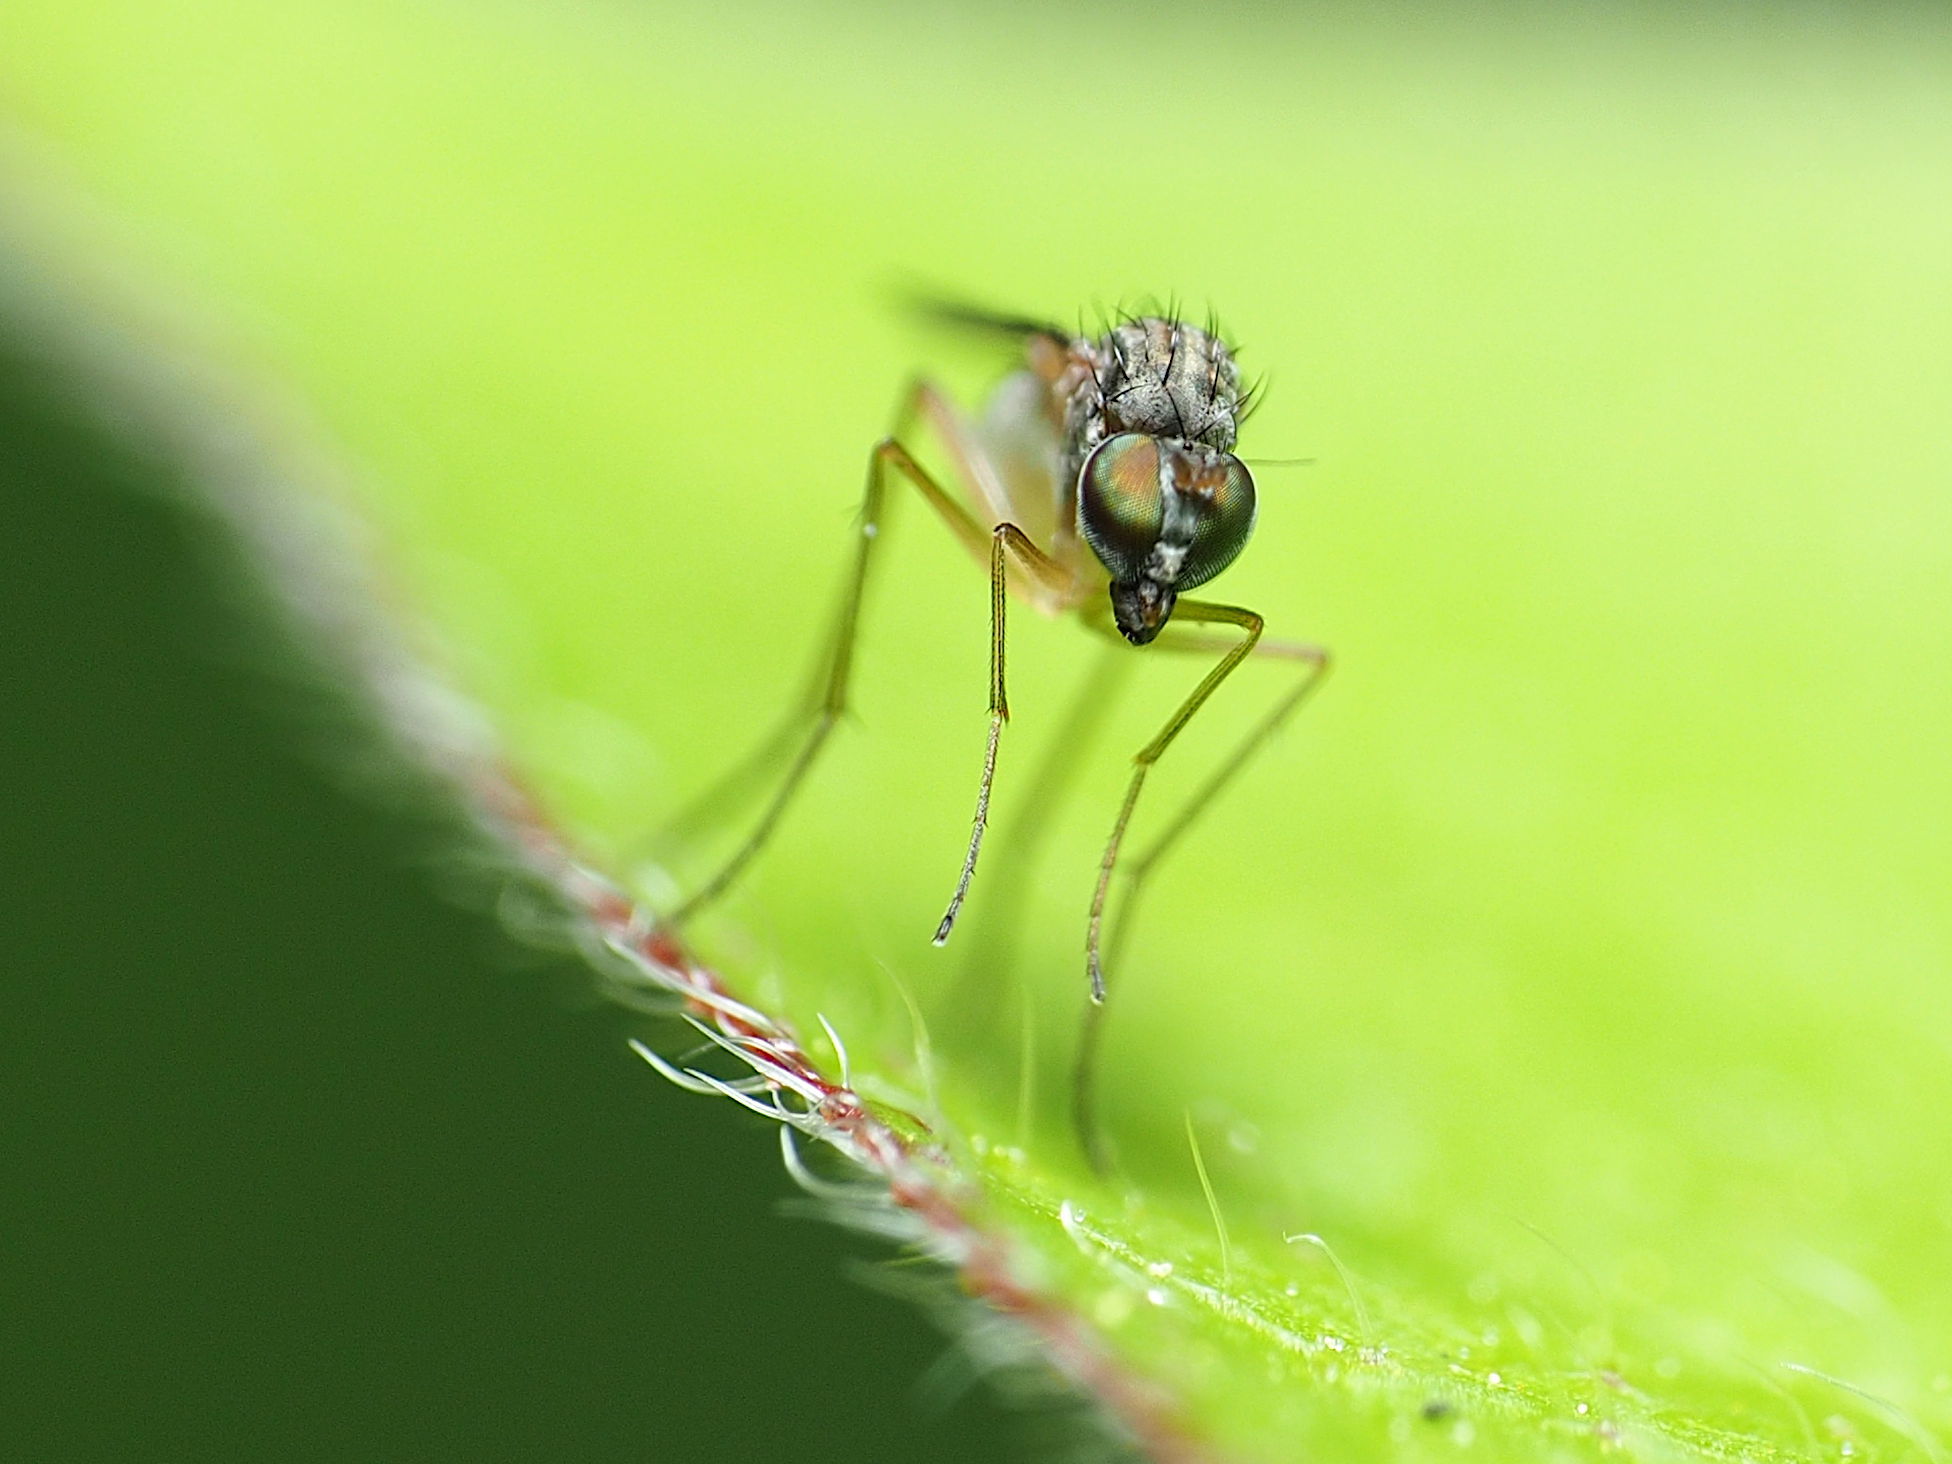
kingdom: Animalia
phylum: Arthropoda
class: Insecta
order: Diptera
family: Dolichopodidae
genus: Sympycnus
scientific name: Sympycnus lineatus
